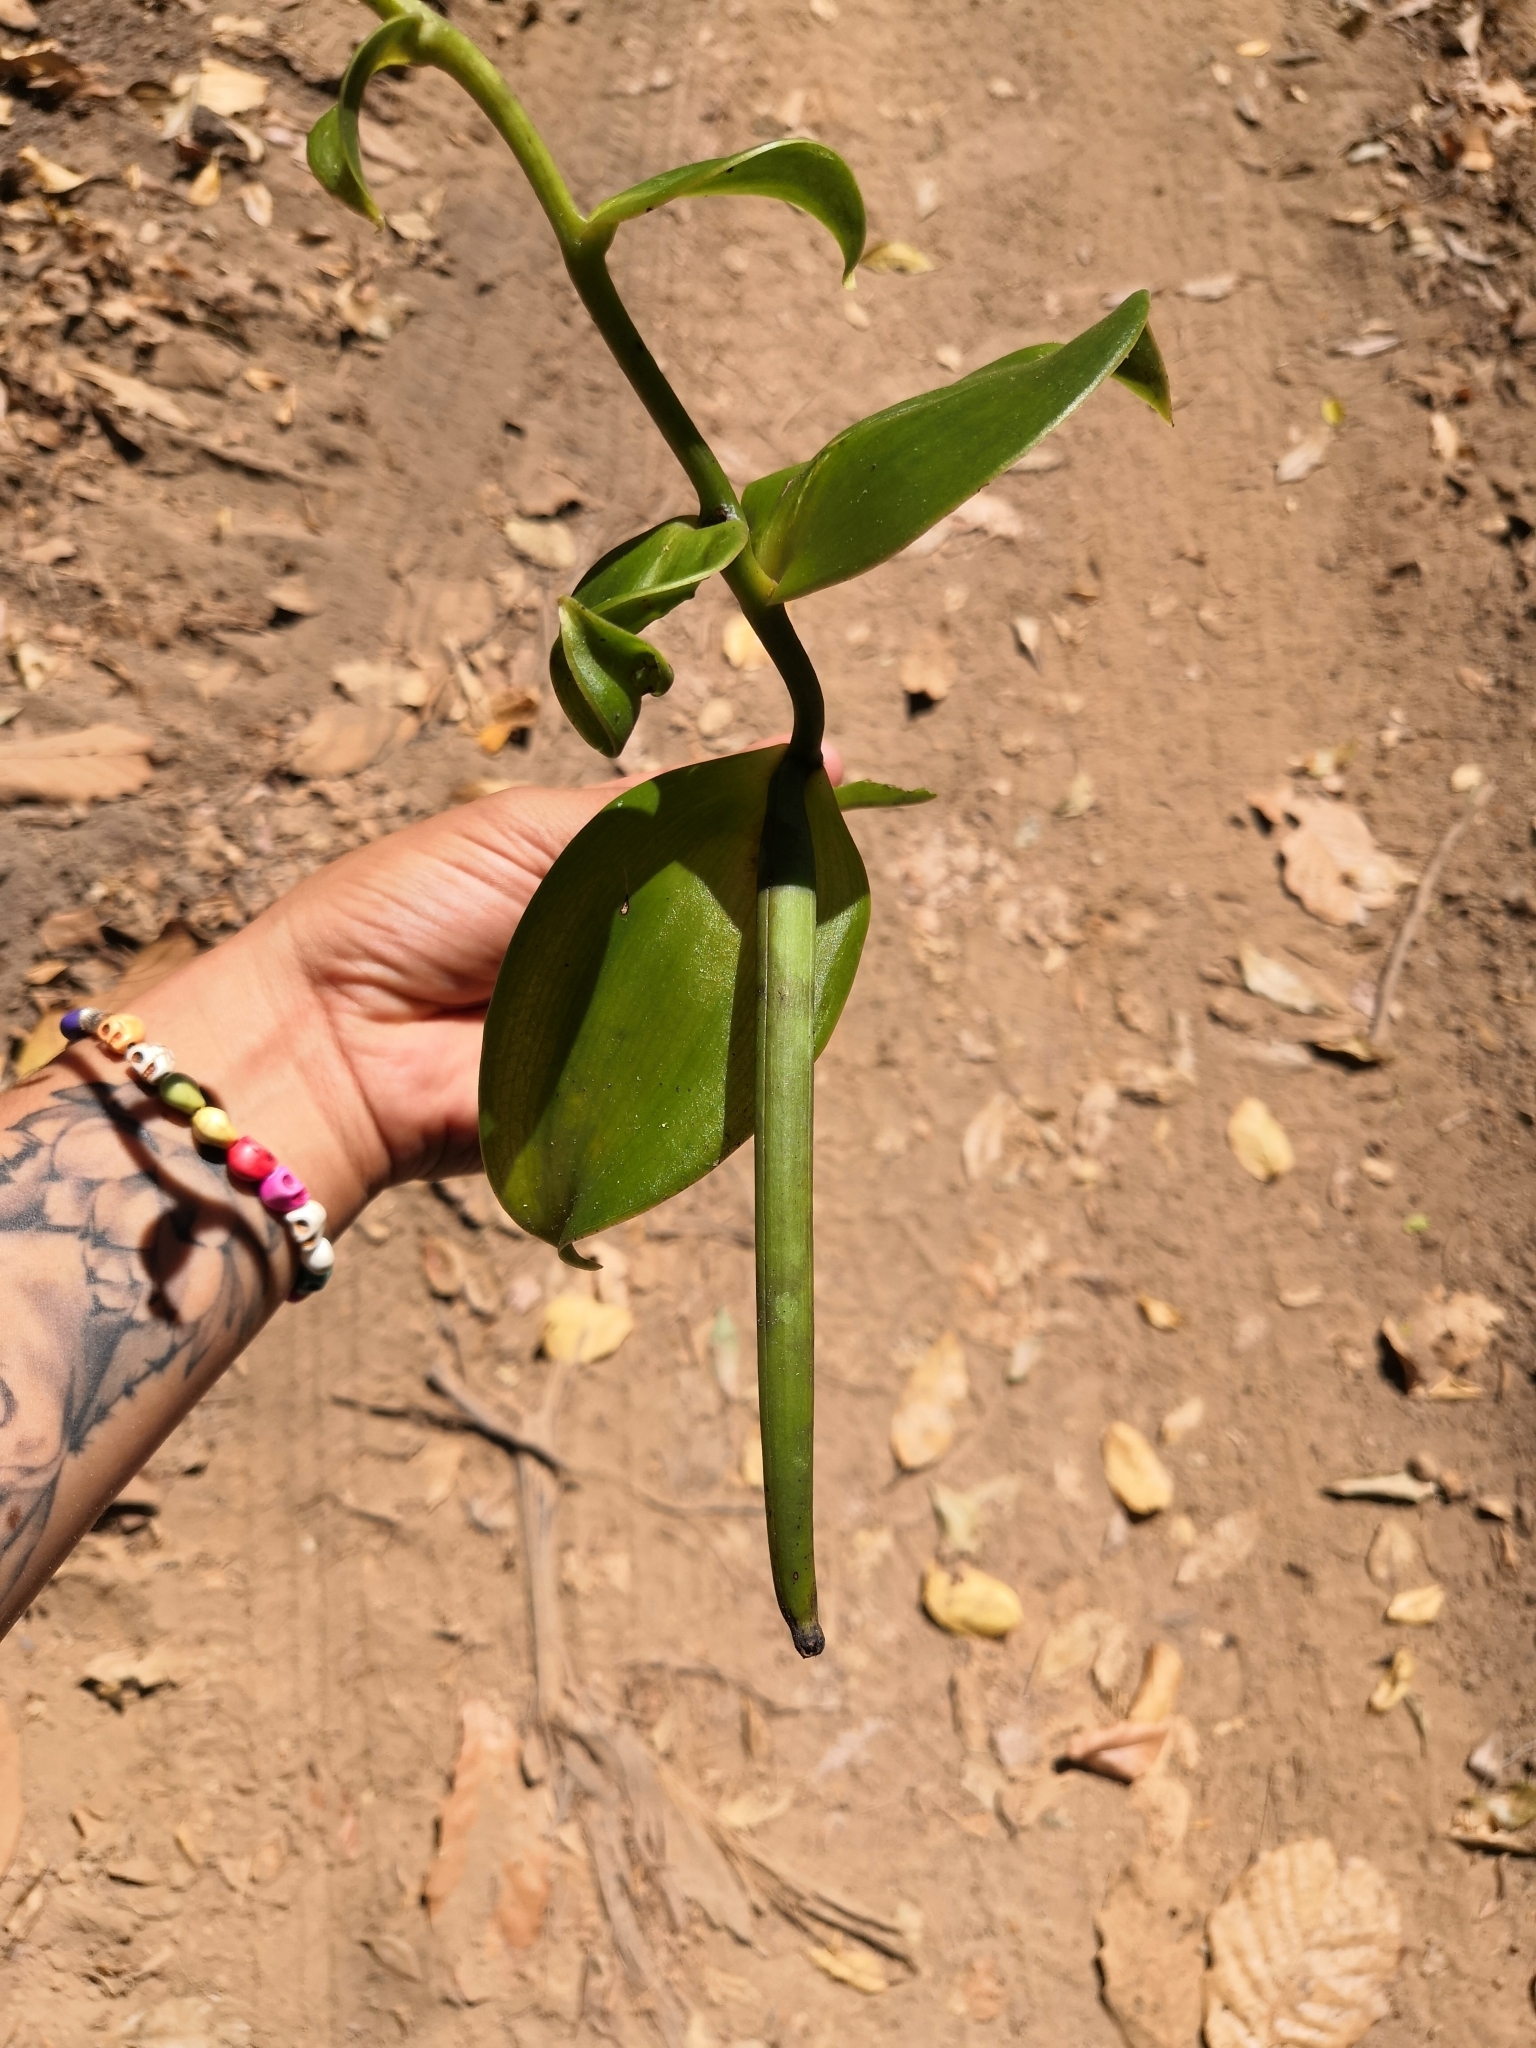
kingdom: Plantae
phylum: Tracheophyta
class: Liliopsida
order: Asparagales
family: Orchidaceae
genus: Vanilla
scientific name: Vanilla inodora
